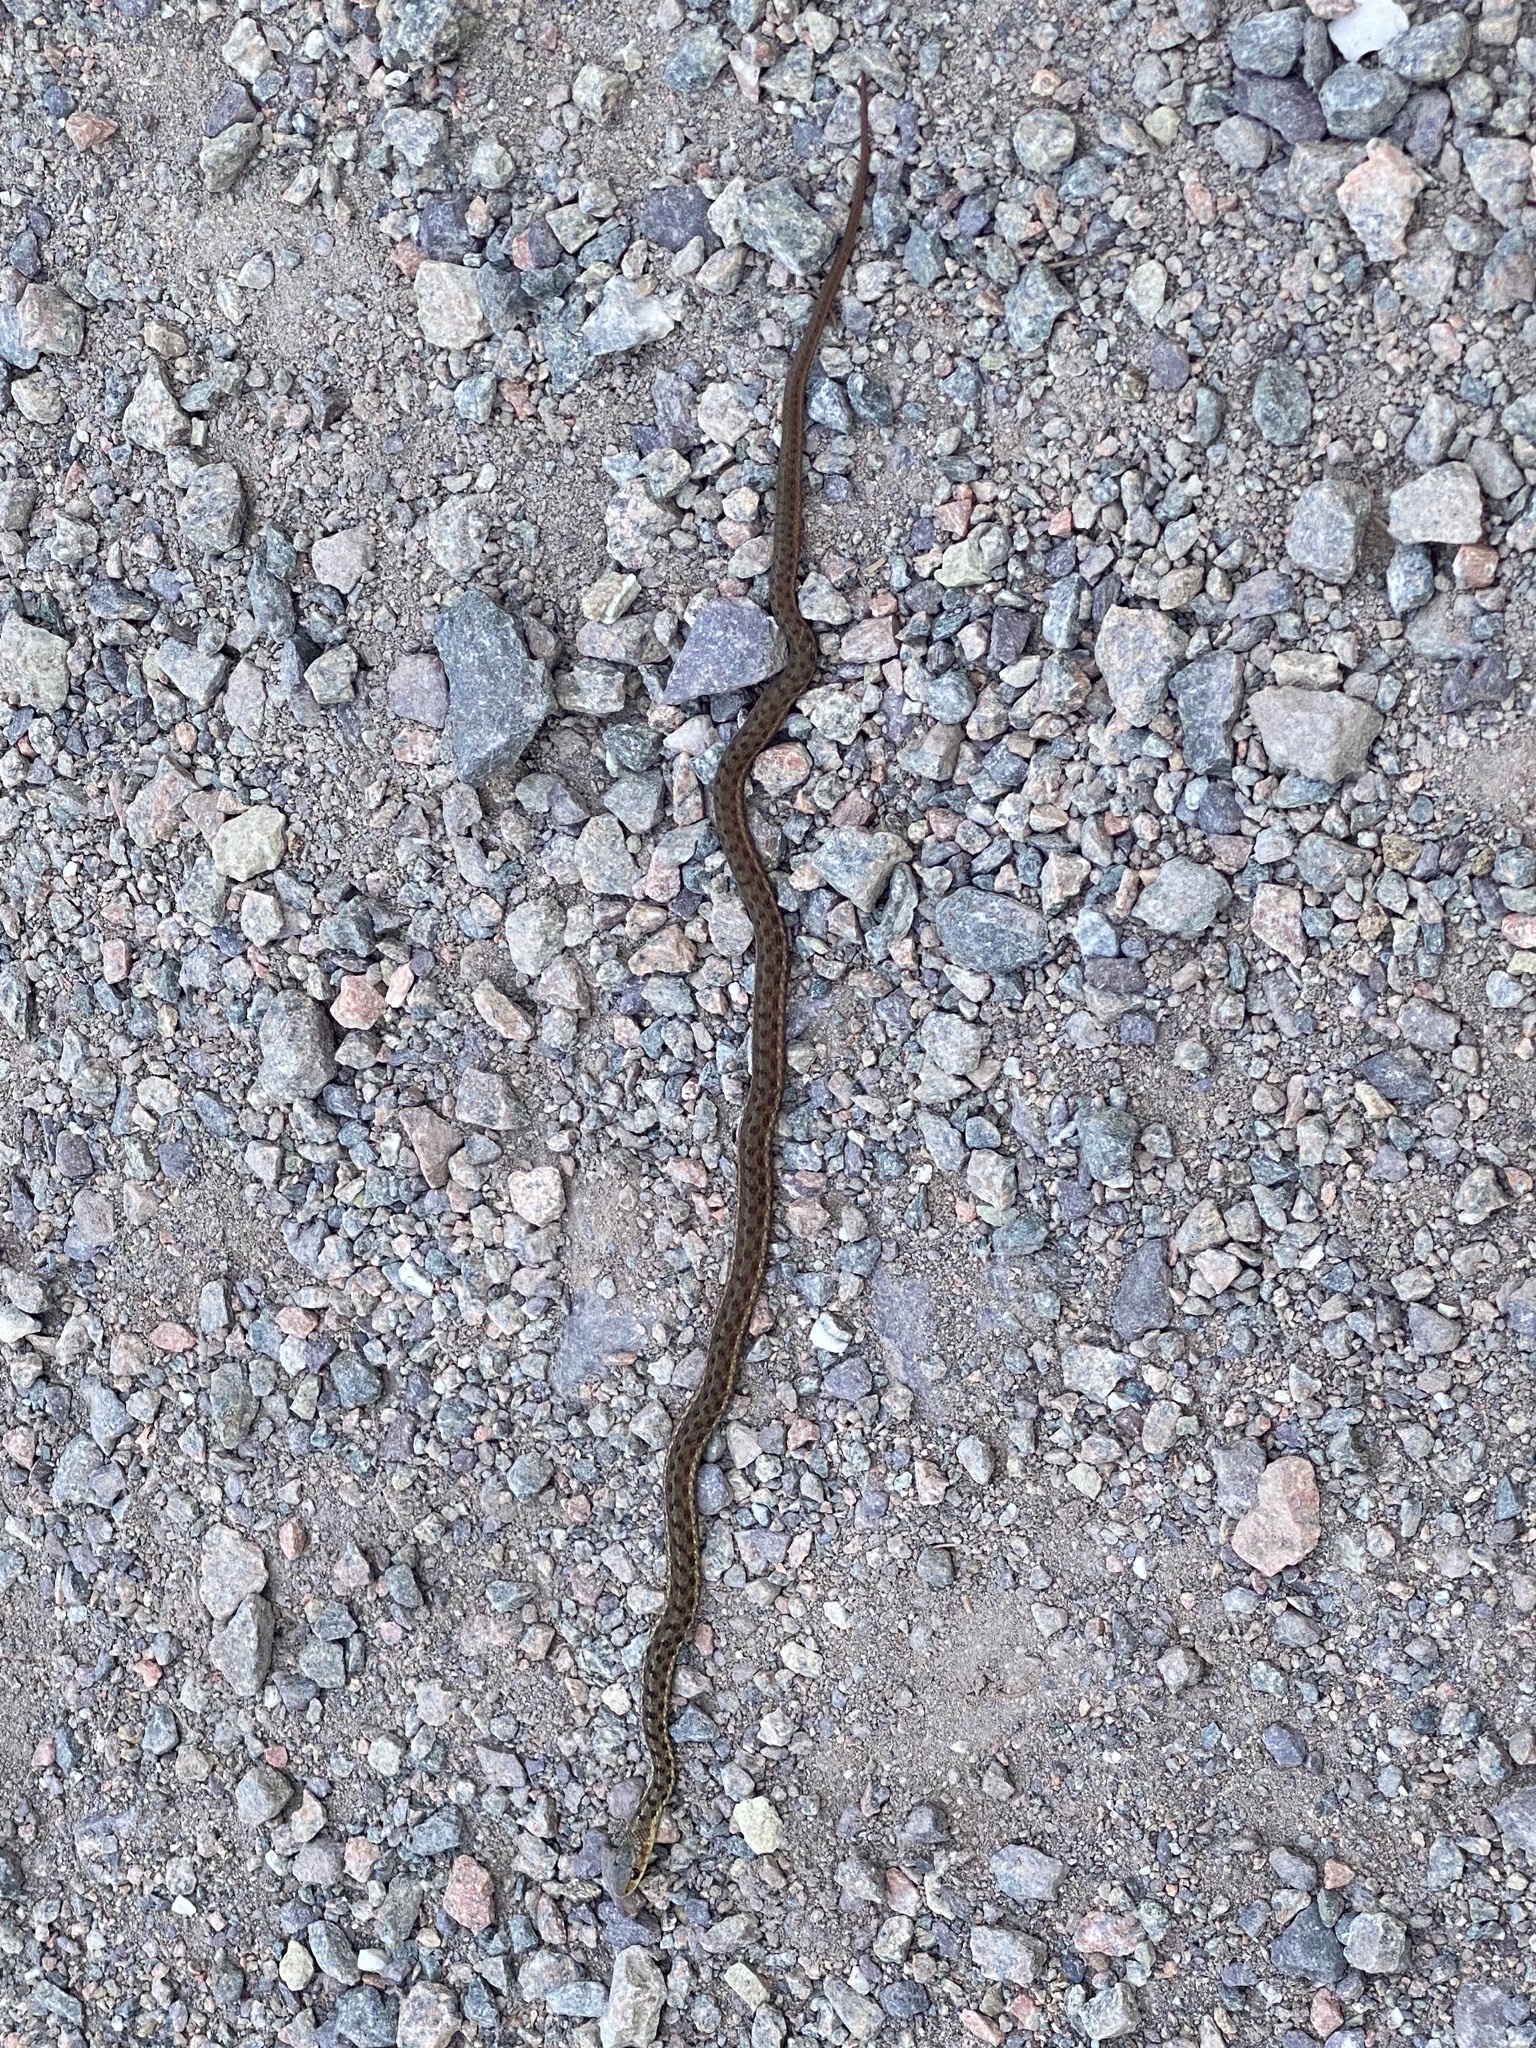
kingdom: Animalia
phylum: Chordata
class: Squamata
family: Colubridae
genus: Thamnophis
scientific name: Thamnophis sirtalis
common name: Common garter snake
